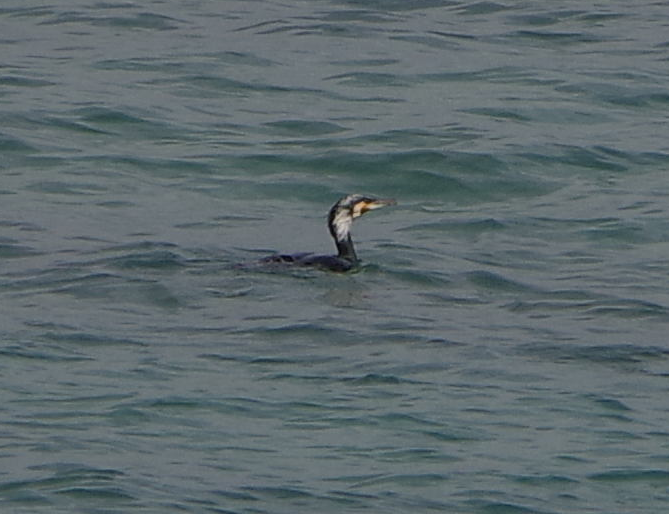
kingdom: Animalia
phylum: Chordata
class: Aves
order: Suliformes
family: Phalacrocoracidae
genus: Phalacrocorax
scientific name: Phalacrocorax carbo
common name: Great cormorant
